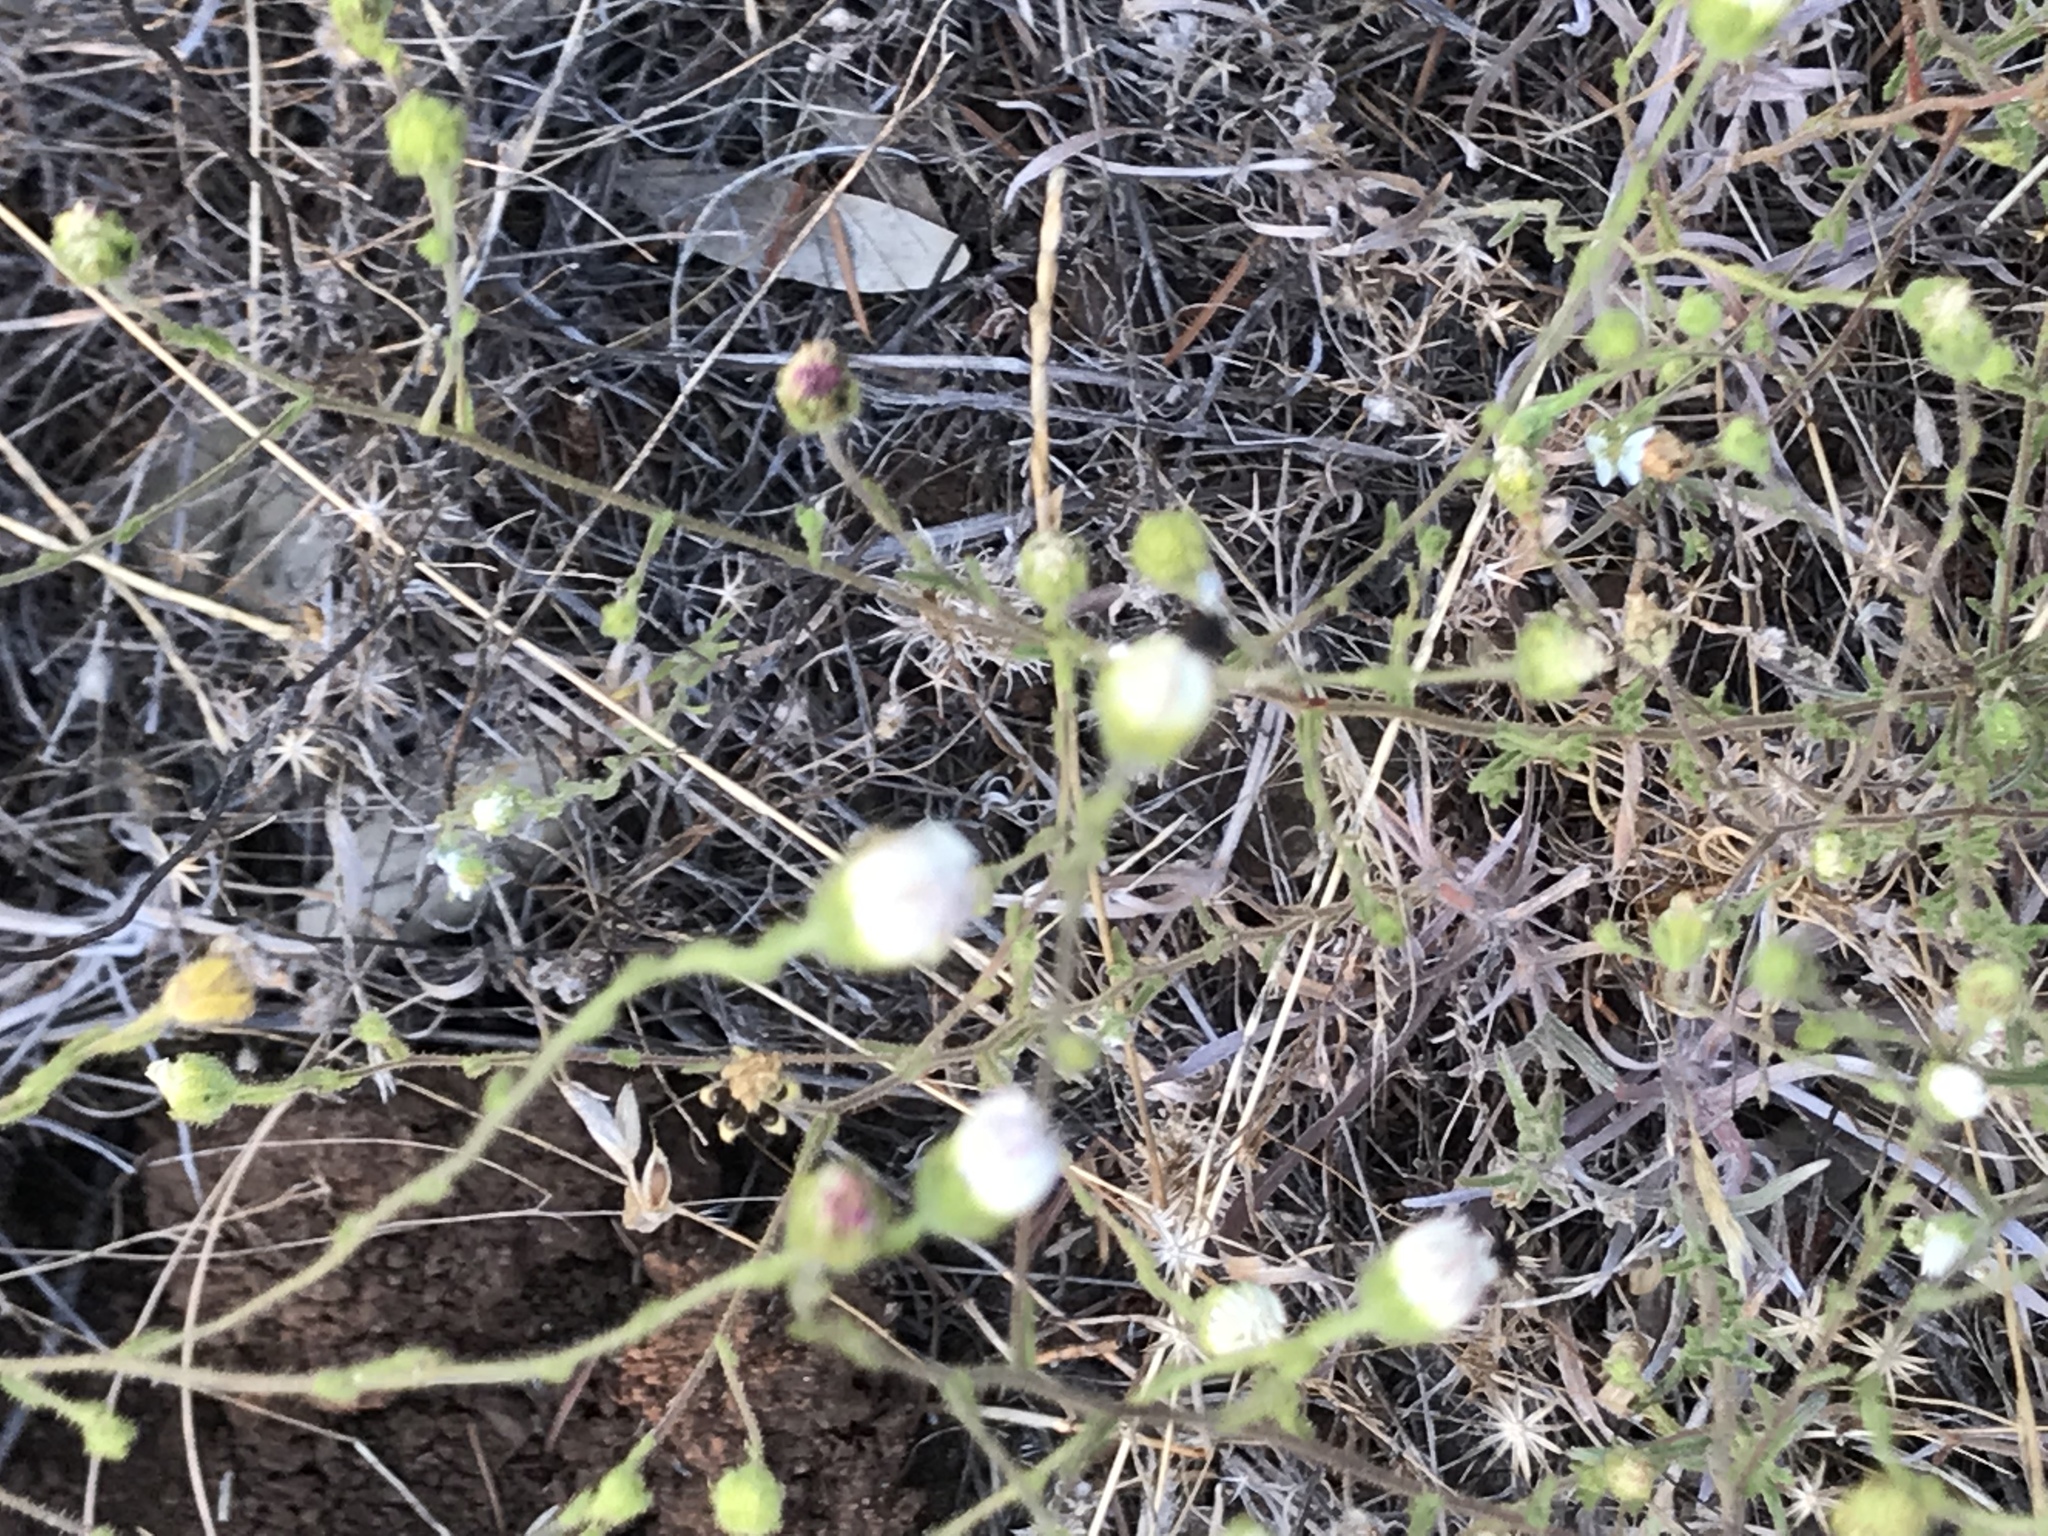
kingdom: Plantae
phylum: Tracheophyta
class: Magnoliopsida
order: Asterales
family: Asteraceae
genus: Hemizonia
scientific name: Hemizonia congesta
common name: Hayfield tarweed
